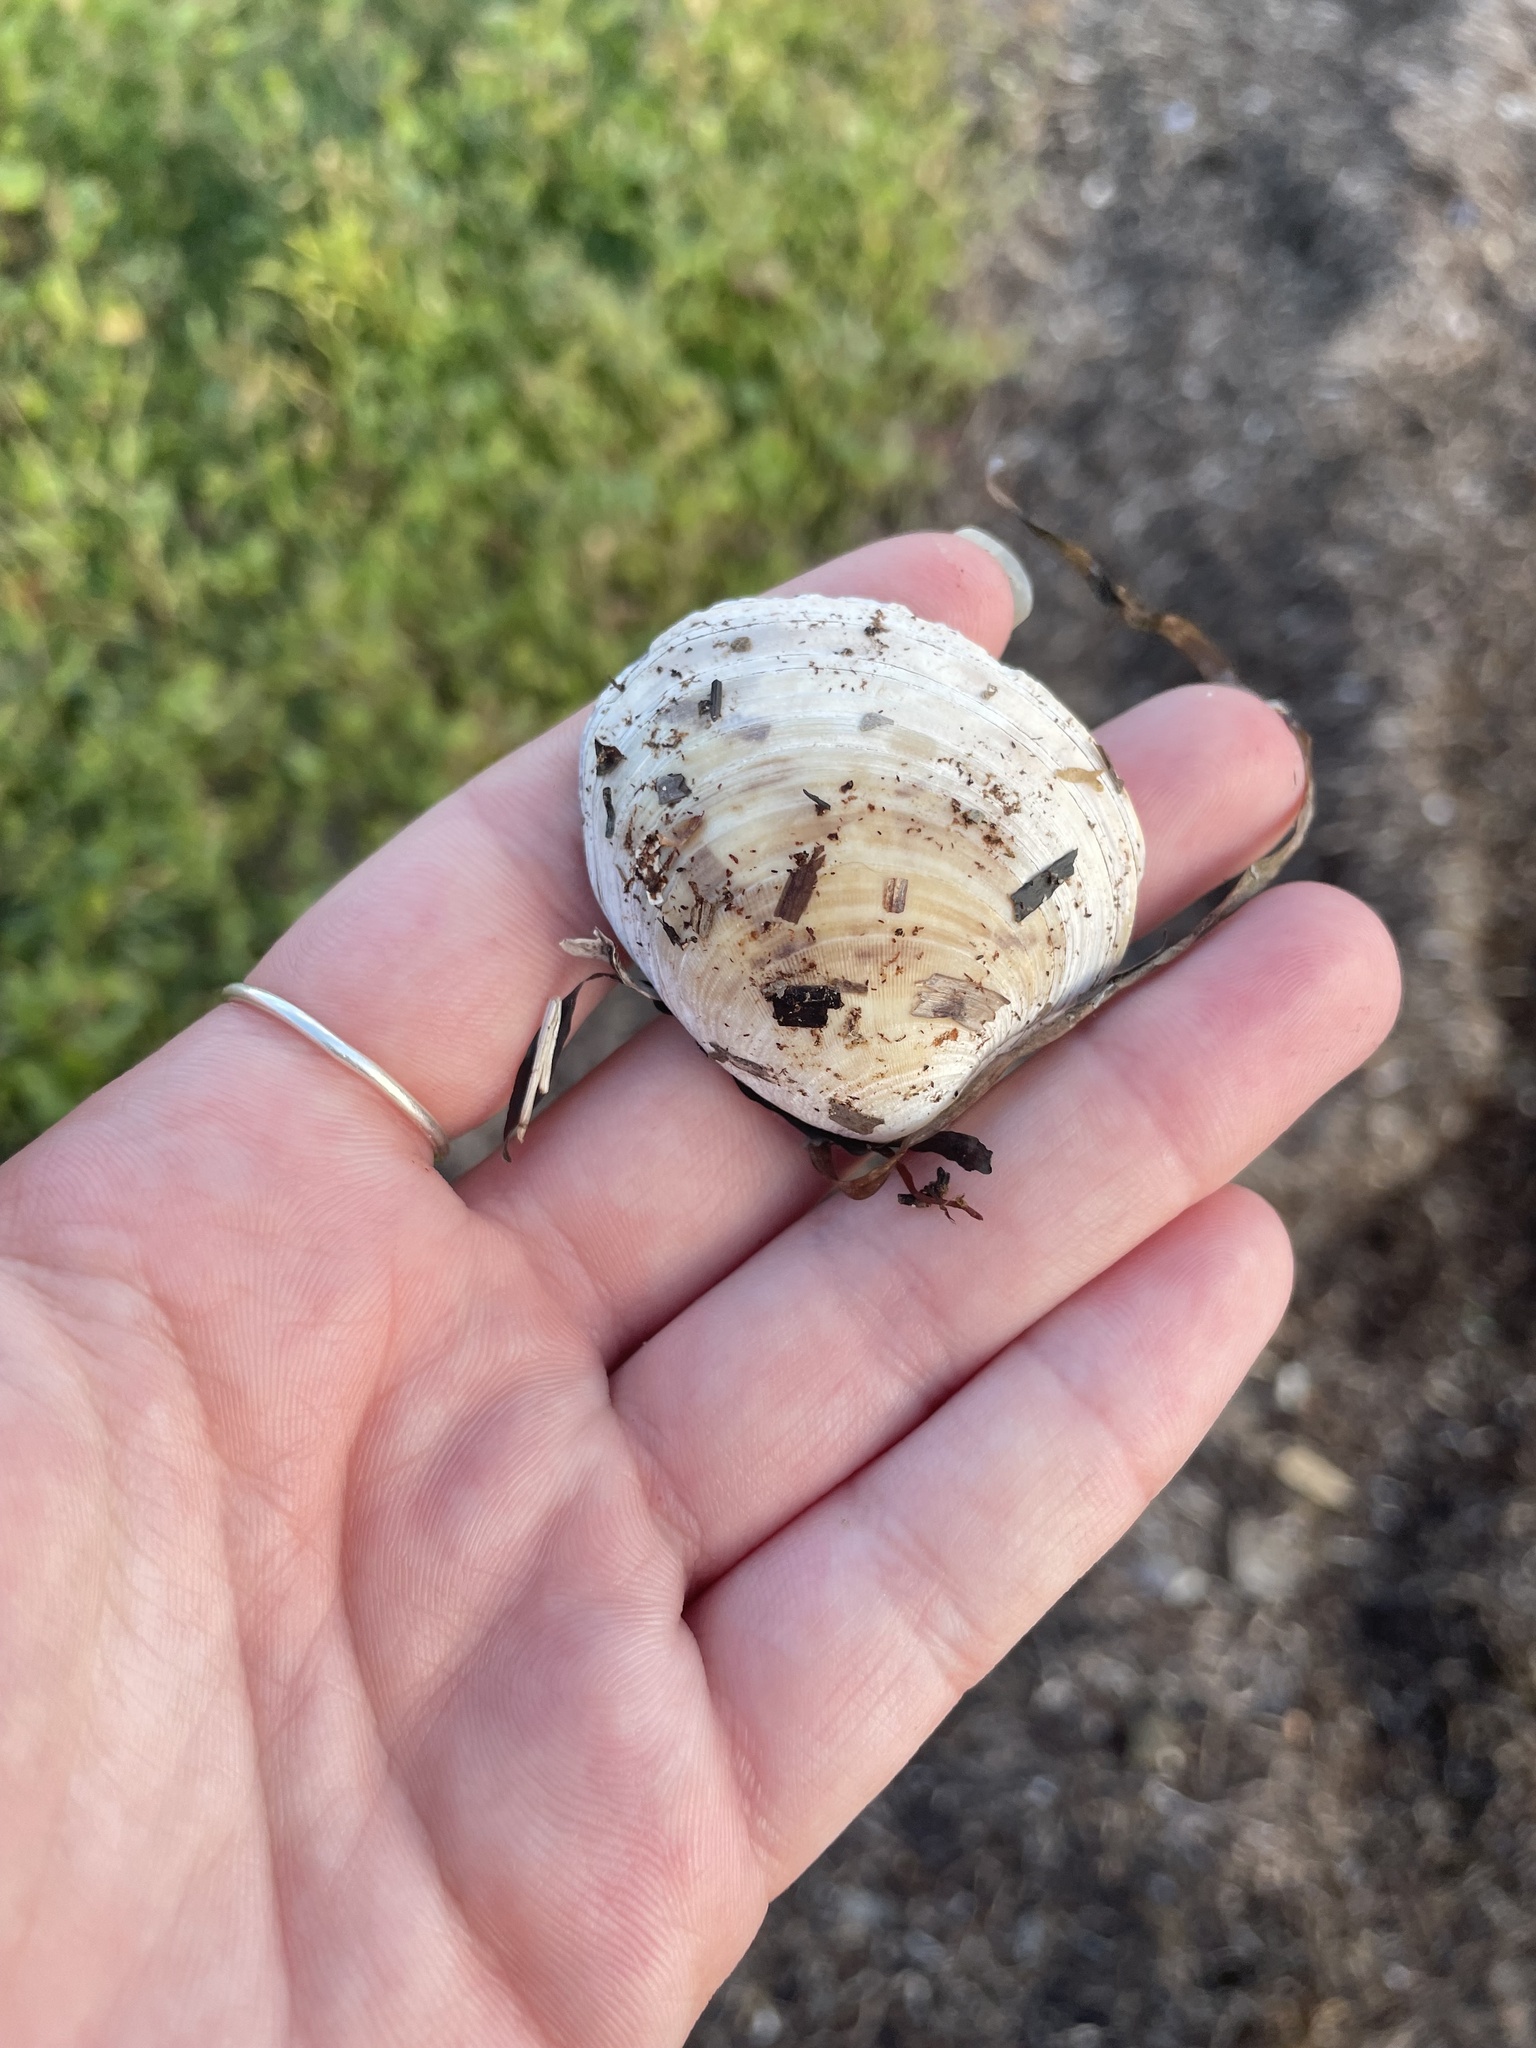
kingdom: Animalia
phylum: Mollusca
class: Bivalvia
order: Venerida
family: Veneridae
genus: Mercenaria
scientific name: Mercenaria mercenaria
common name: American hard-shelled clam
